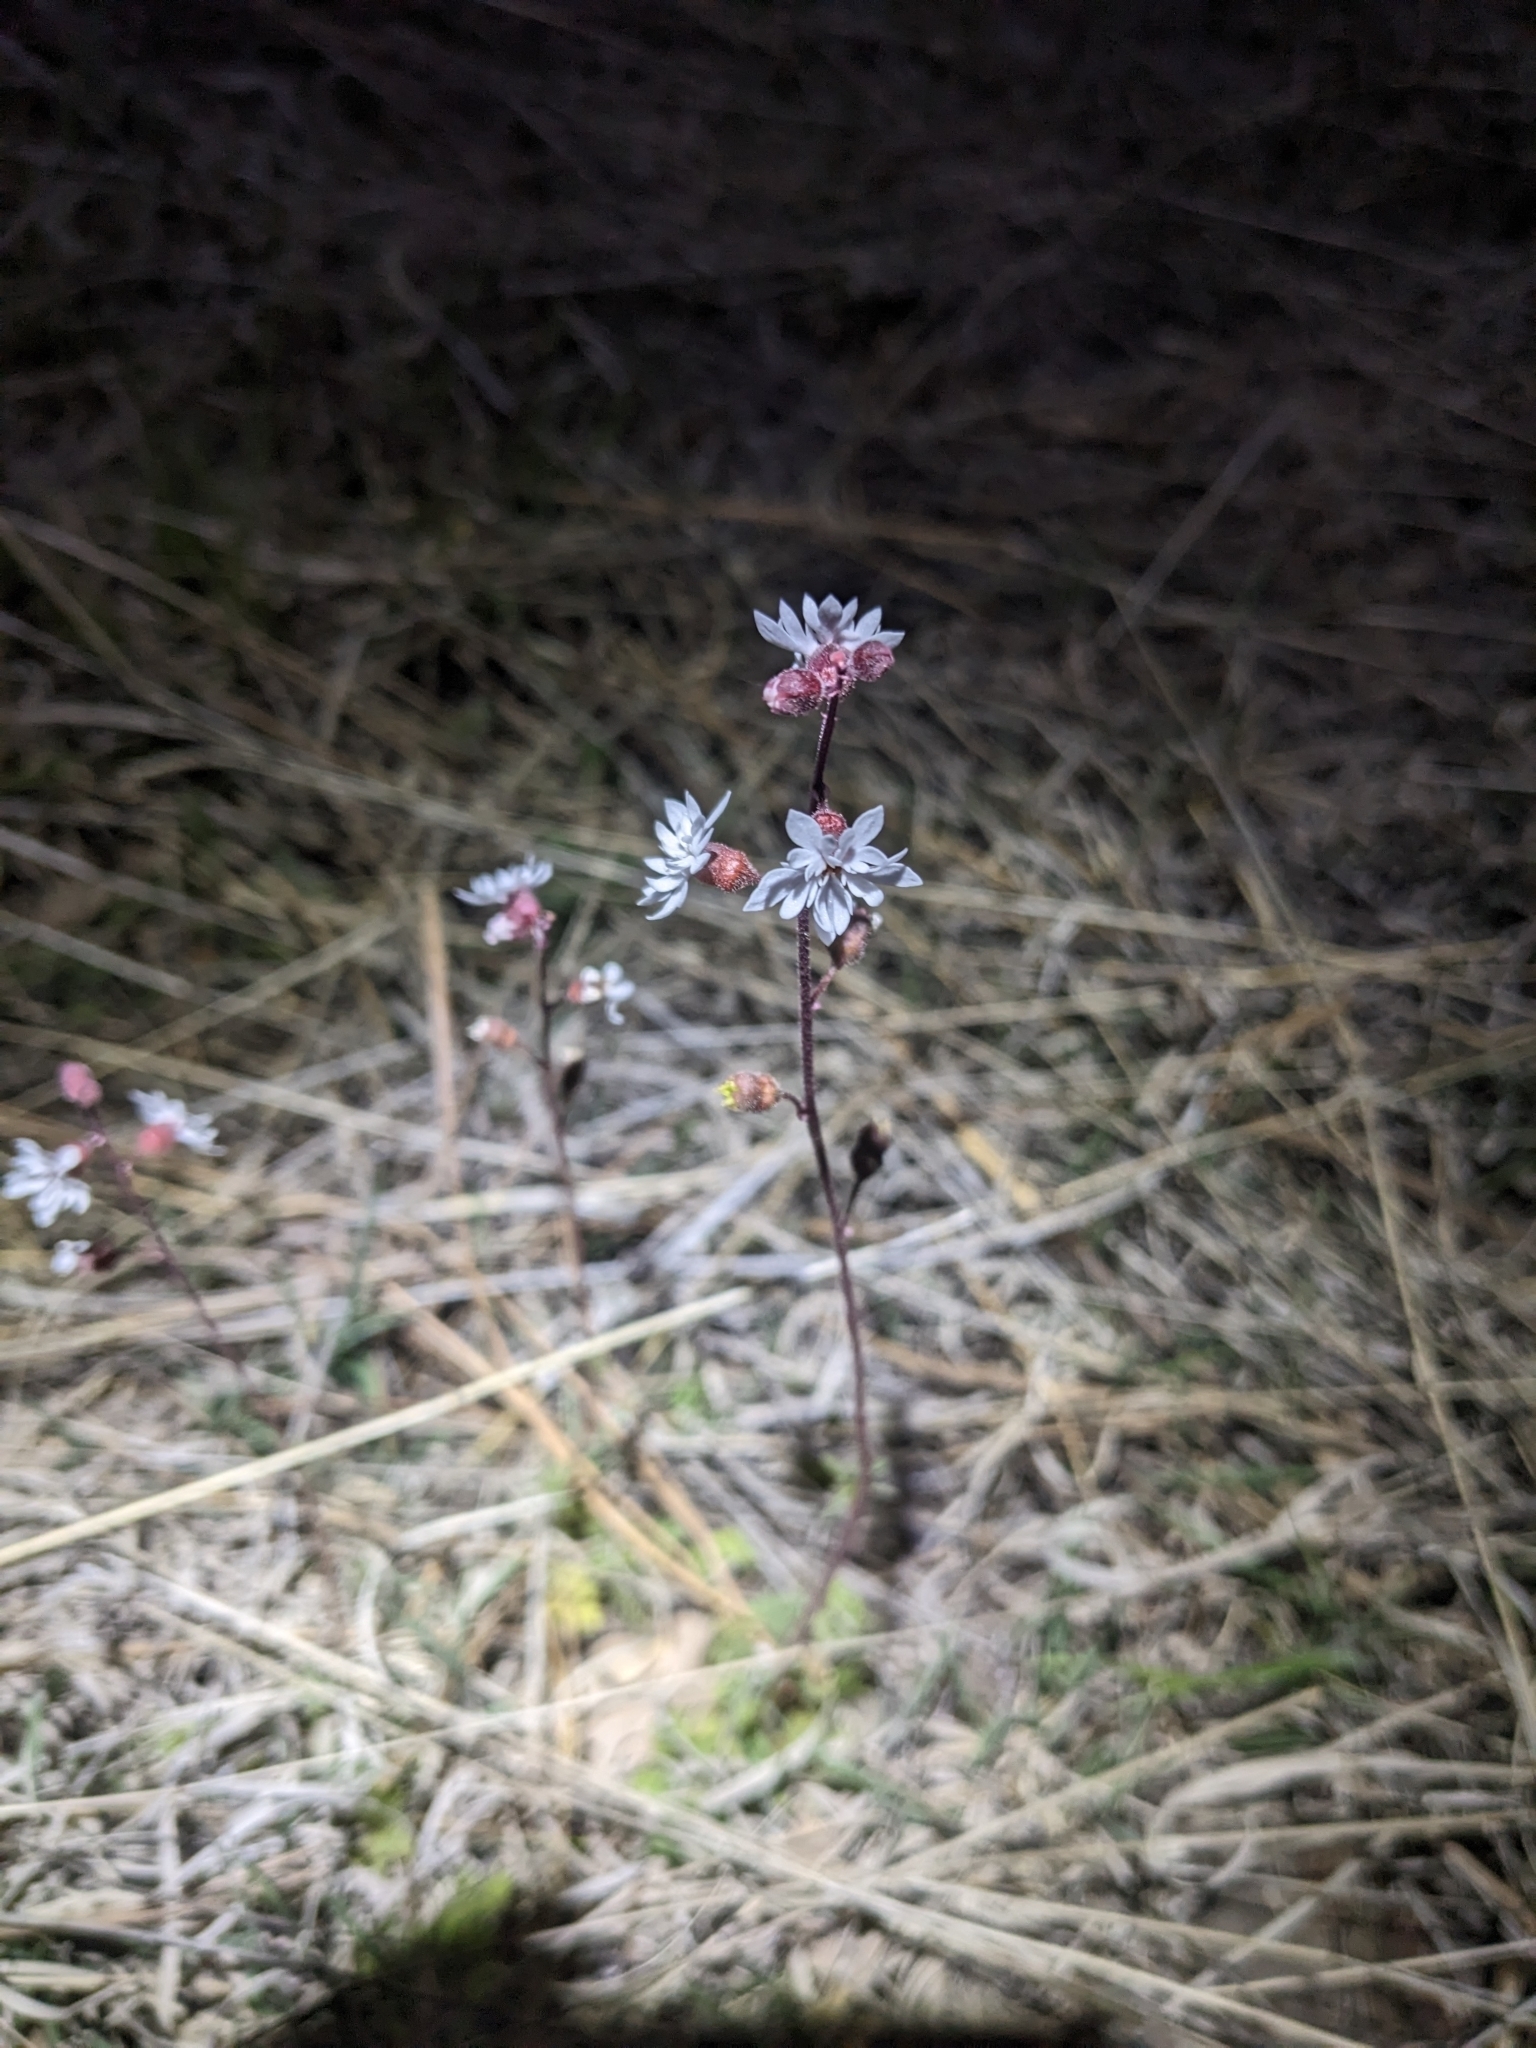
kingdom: Plantae
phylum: Tracheophyta
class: Magnoliopsida
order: Saxifragales
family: Saxifragaceae
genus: Lithophragma
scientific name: Lithophragma tenella
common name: Slender fringe-cup
